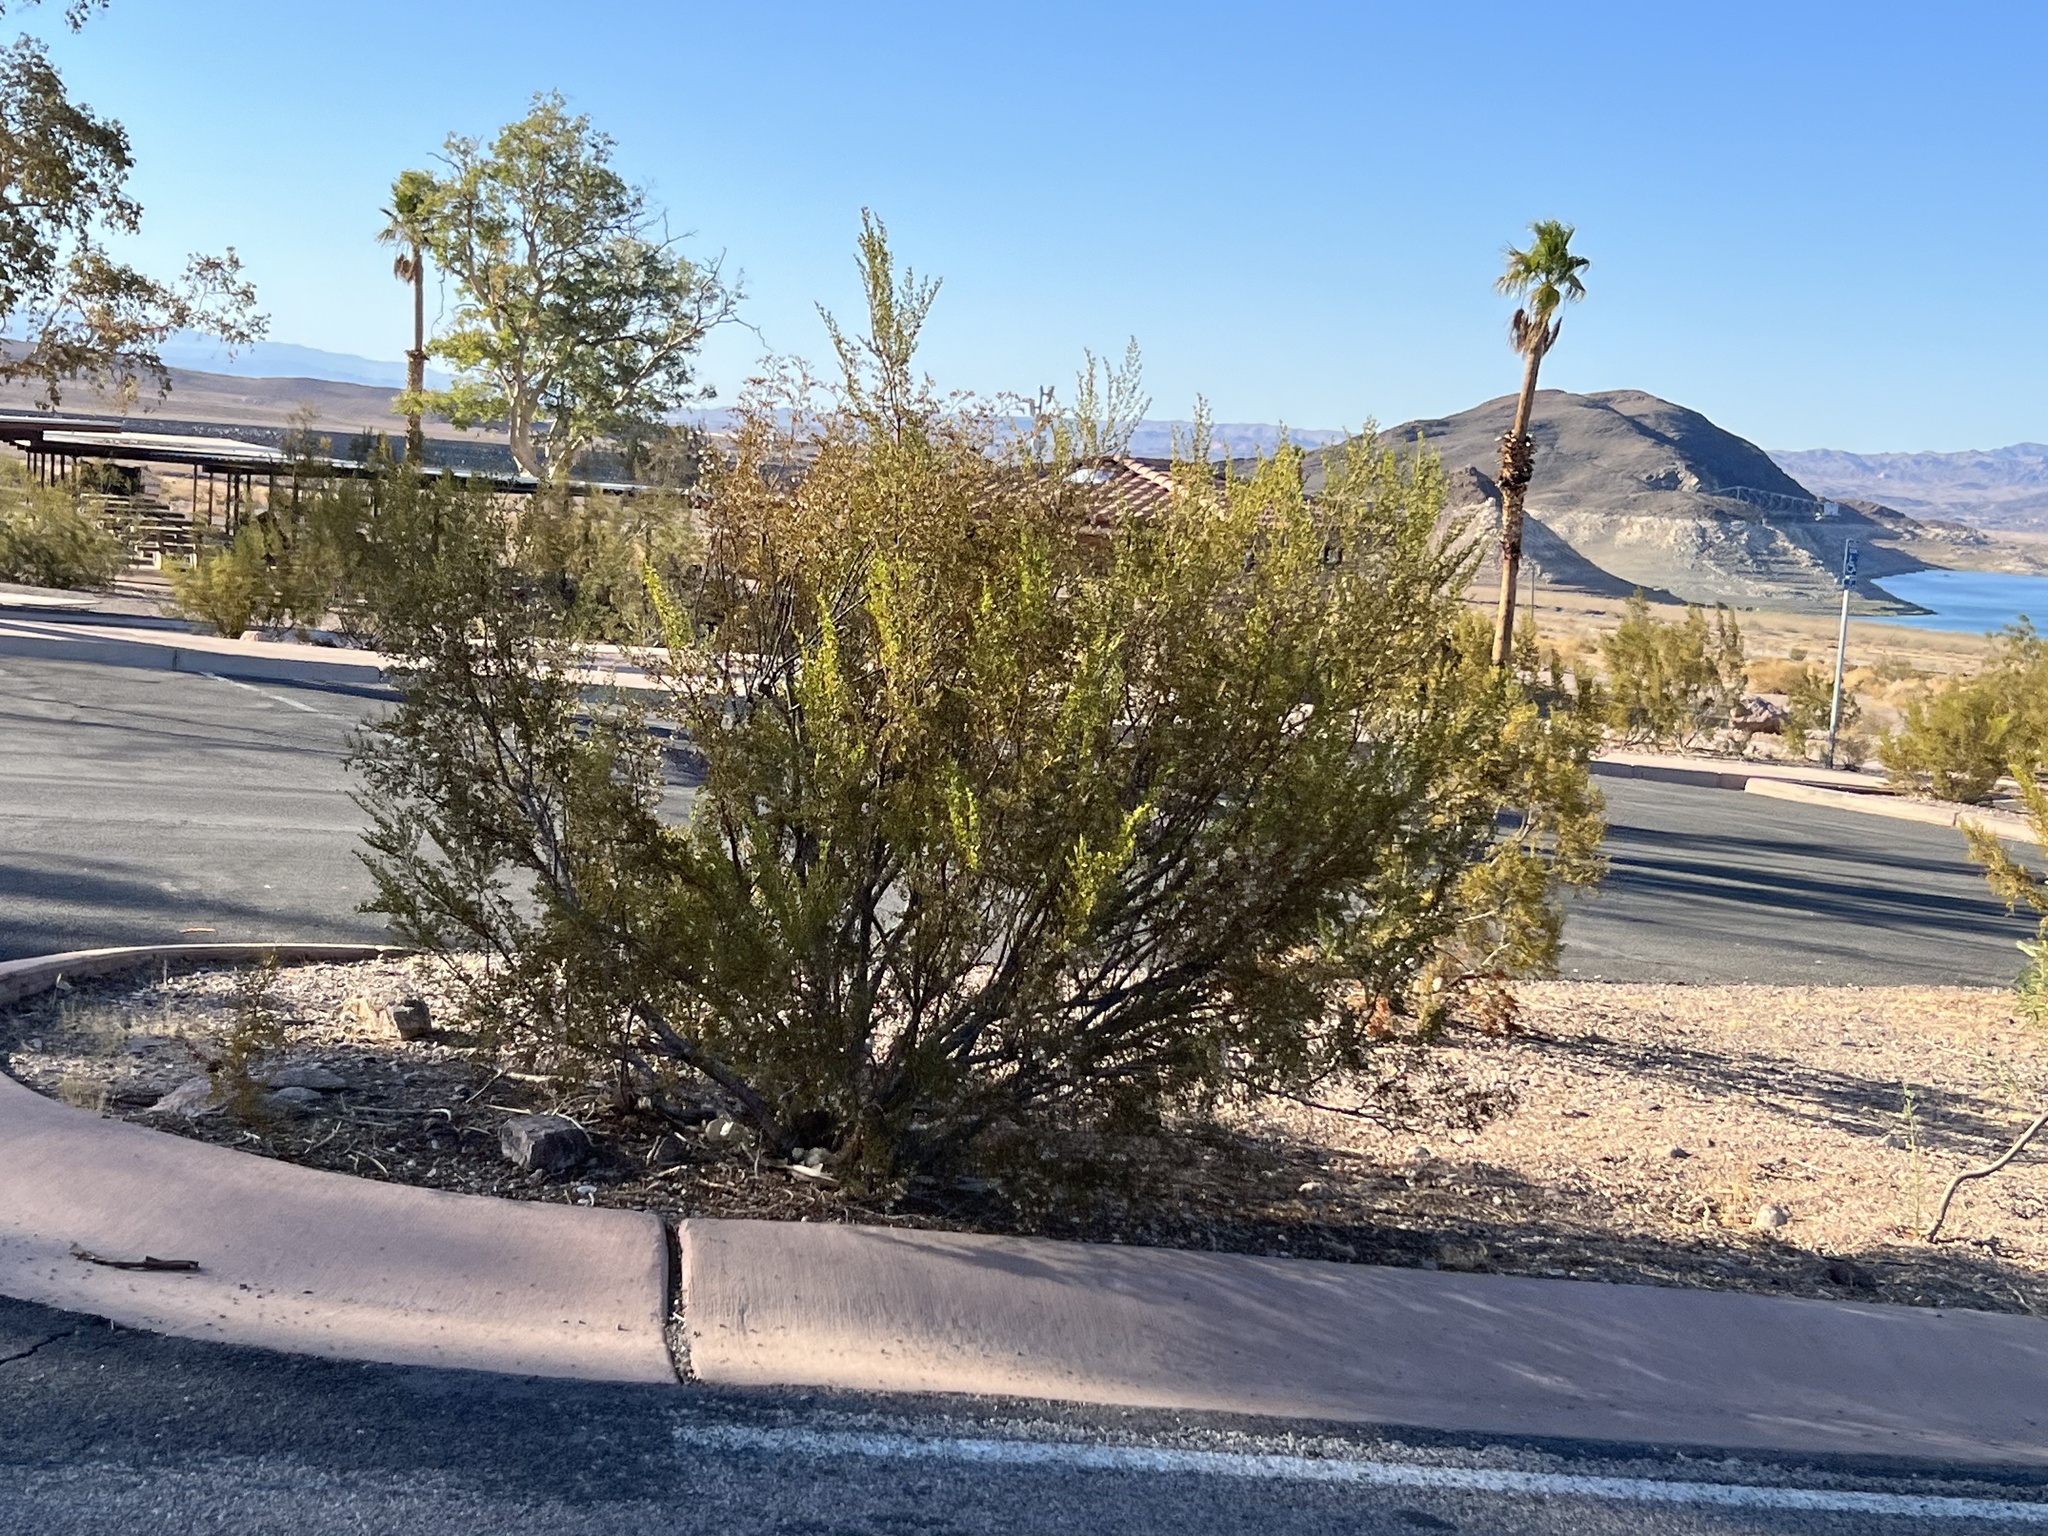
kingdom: Plantae
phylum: Tracheophyta
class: Magnoliopsida
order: Zygophyllales
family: Zygophyllaceae
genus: Larrea
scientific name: Larrea tridentata
